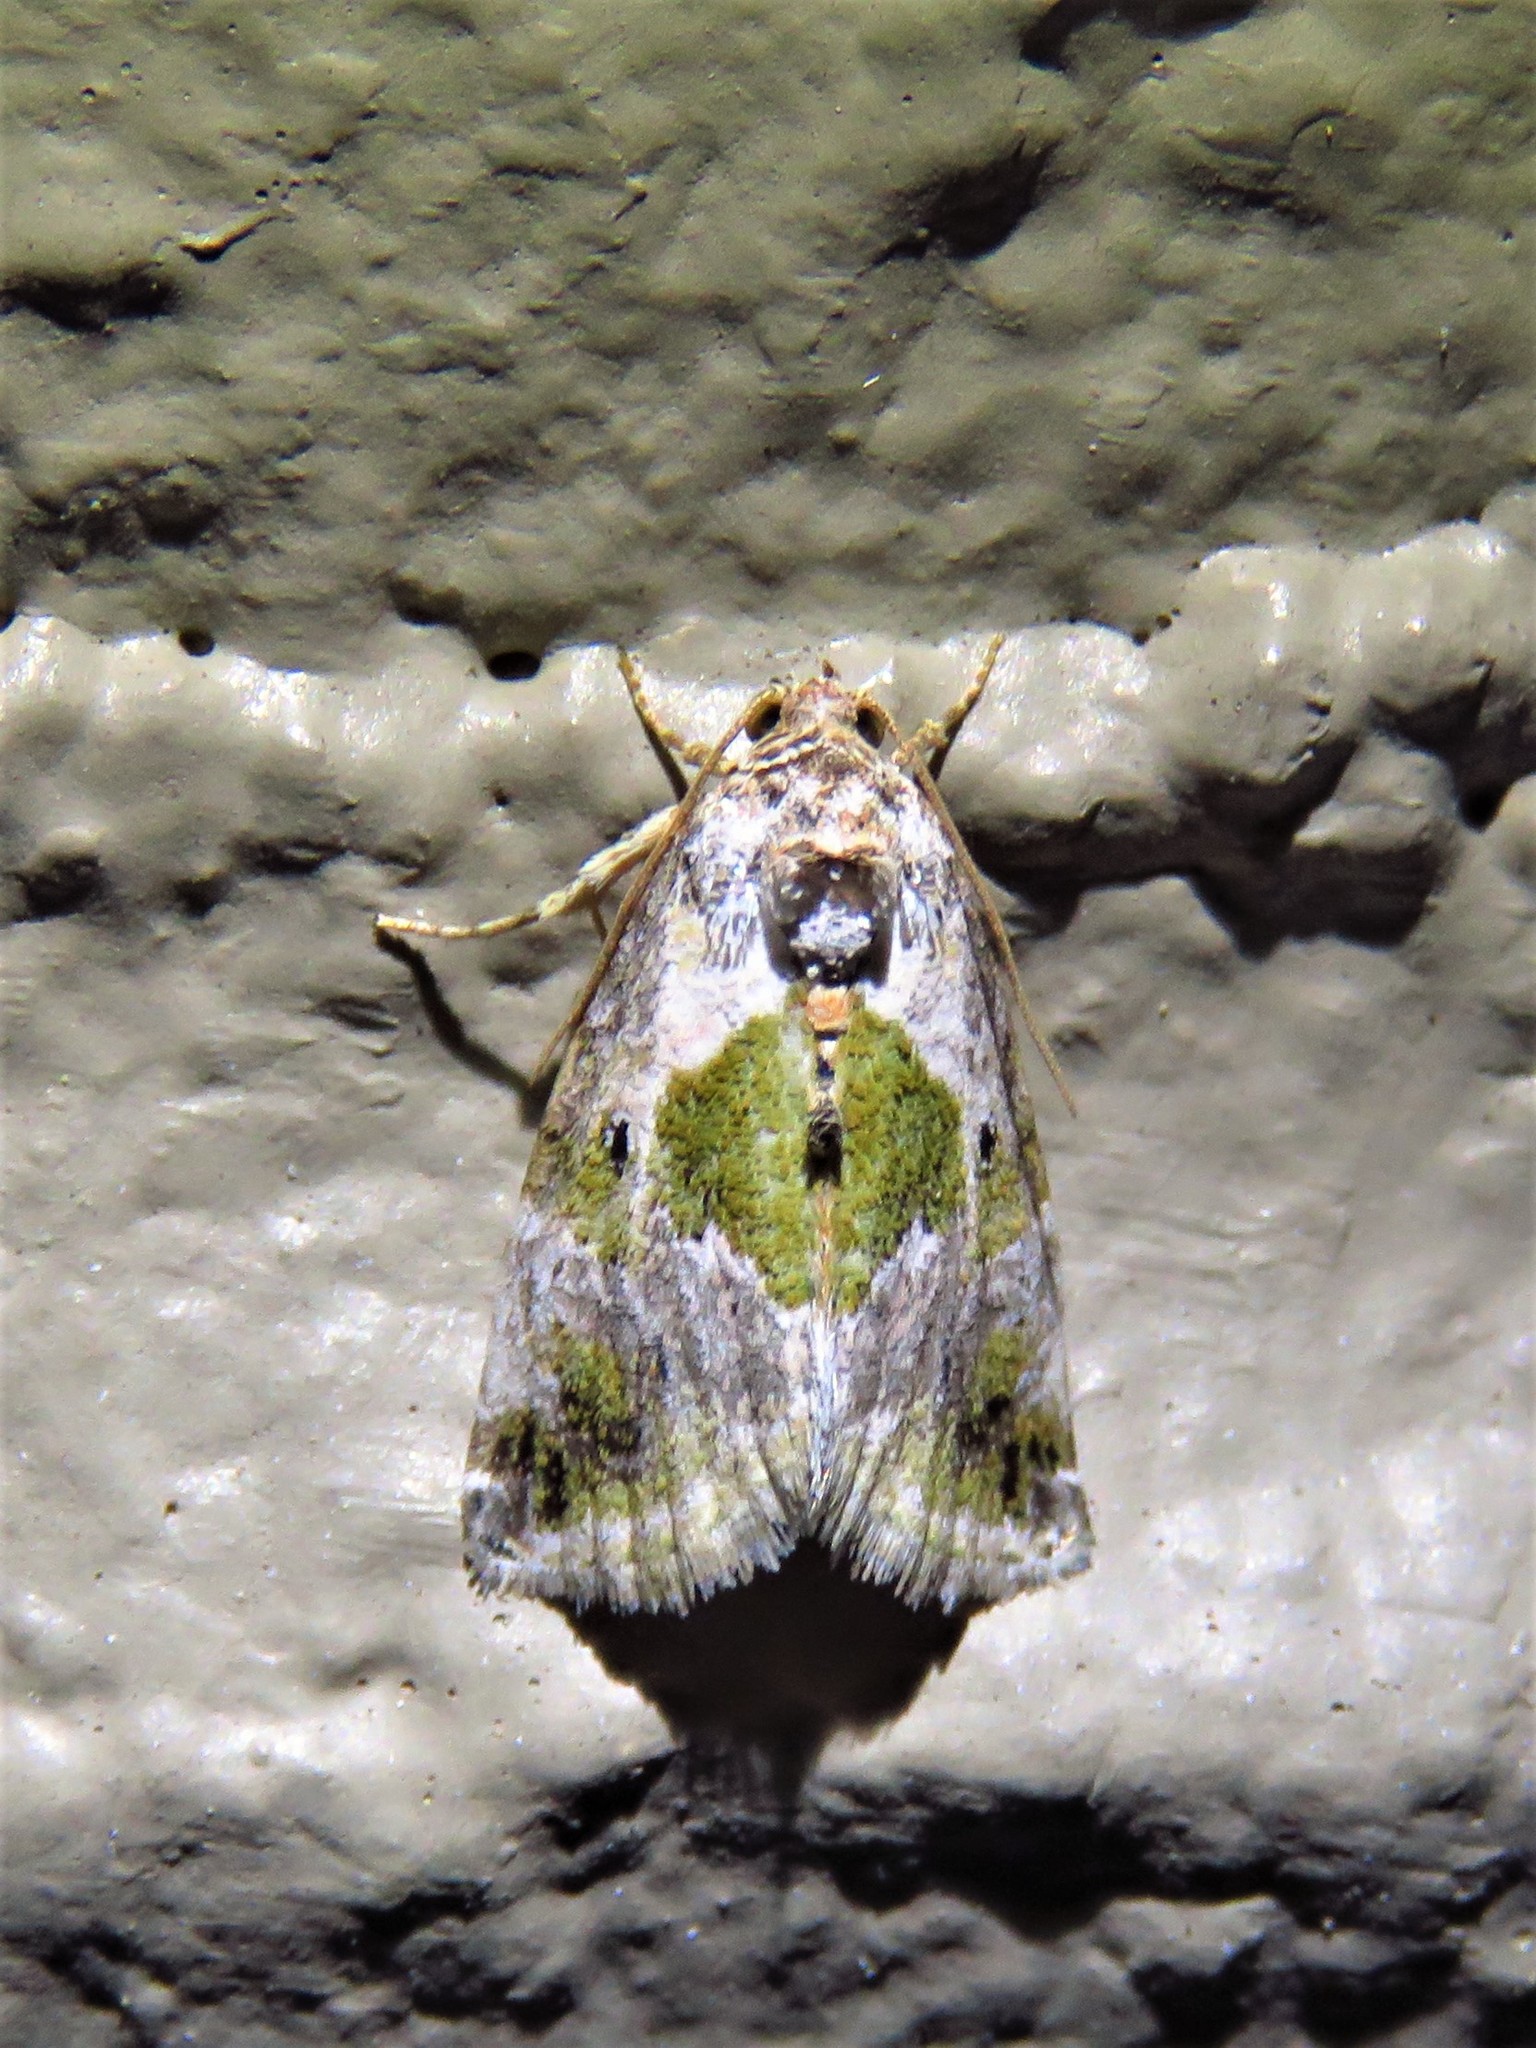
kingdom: Animalia
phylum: Arthropoda
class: Insecta
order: Lepidoptera
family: Noctuidae
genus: Maliattha
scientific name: Maliattha synochitis
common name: Black-dotted glyph
